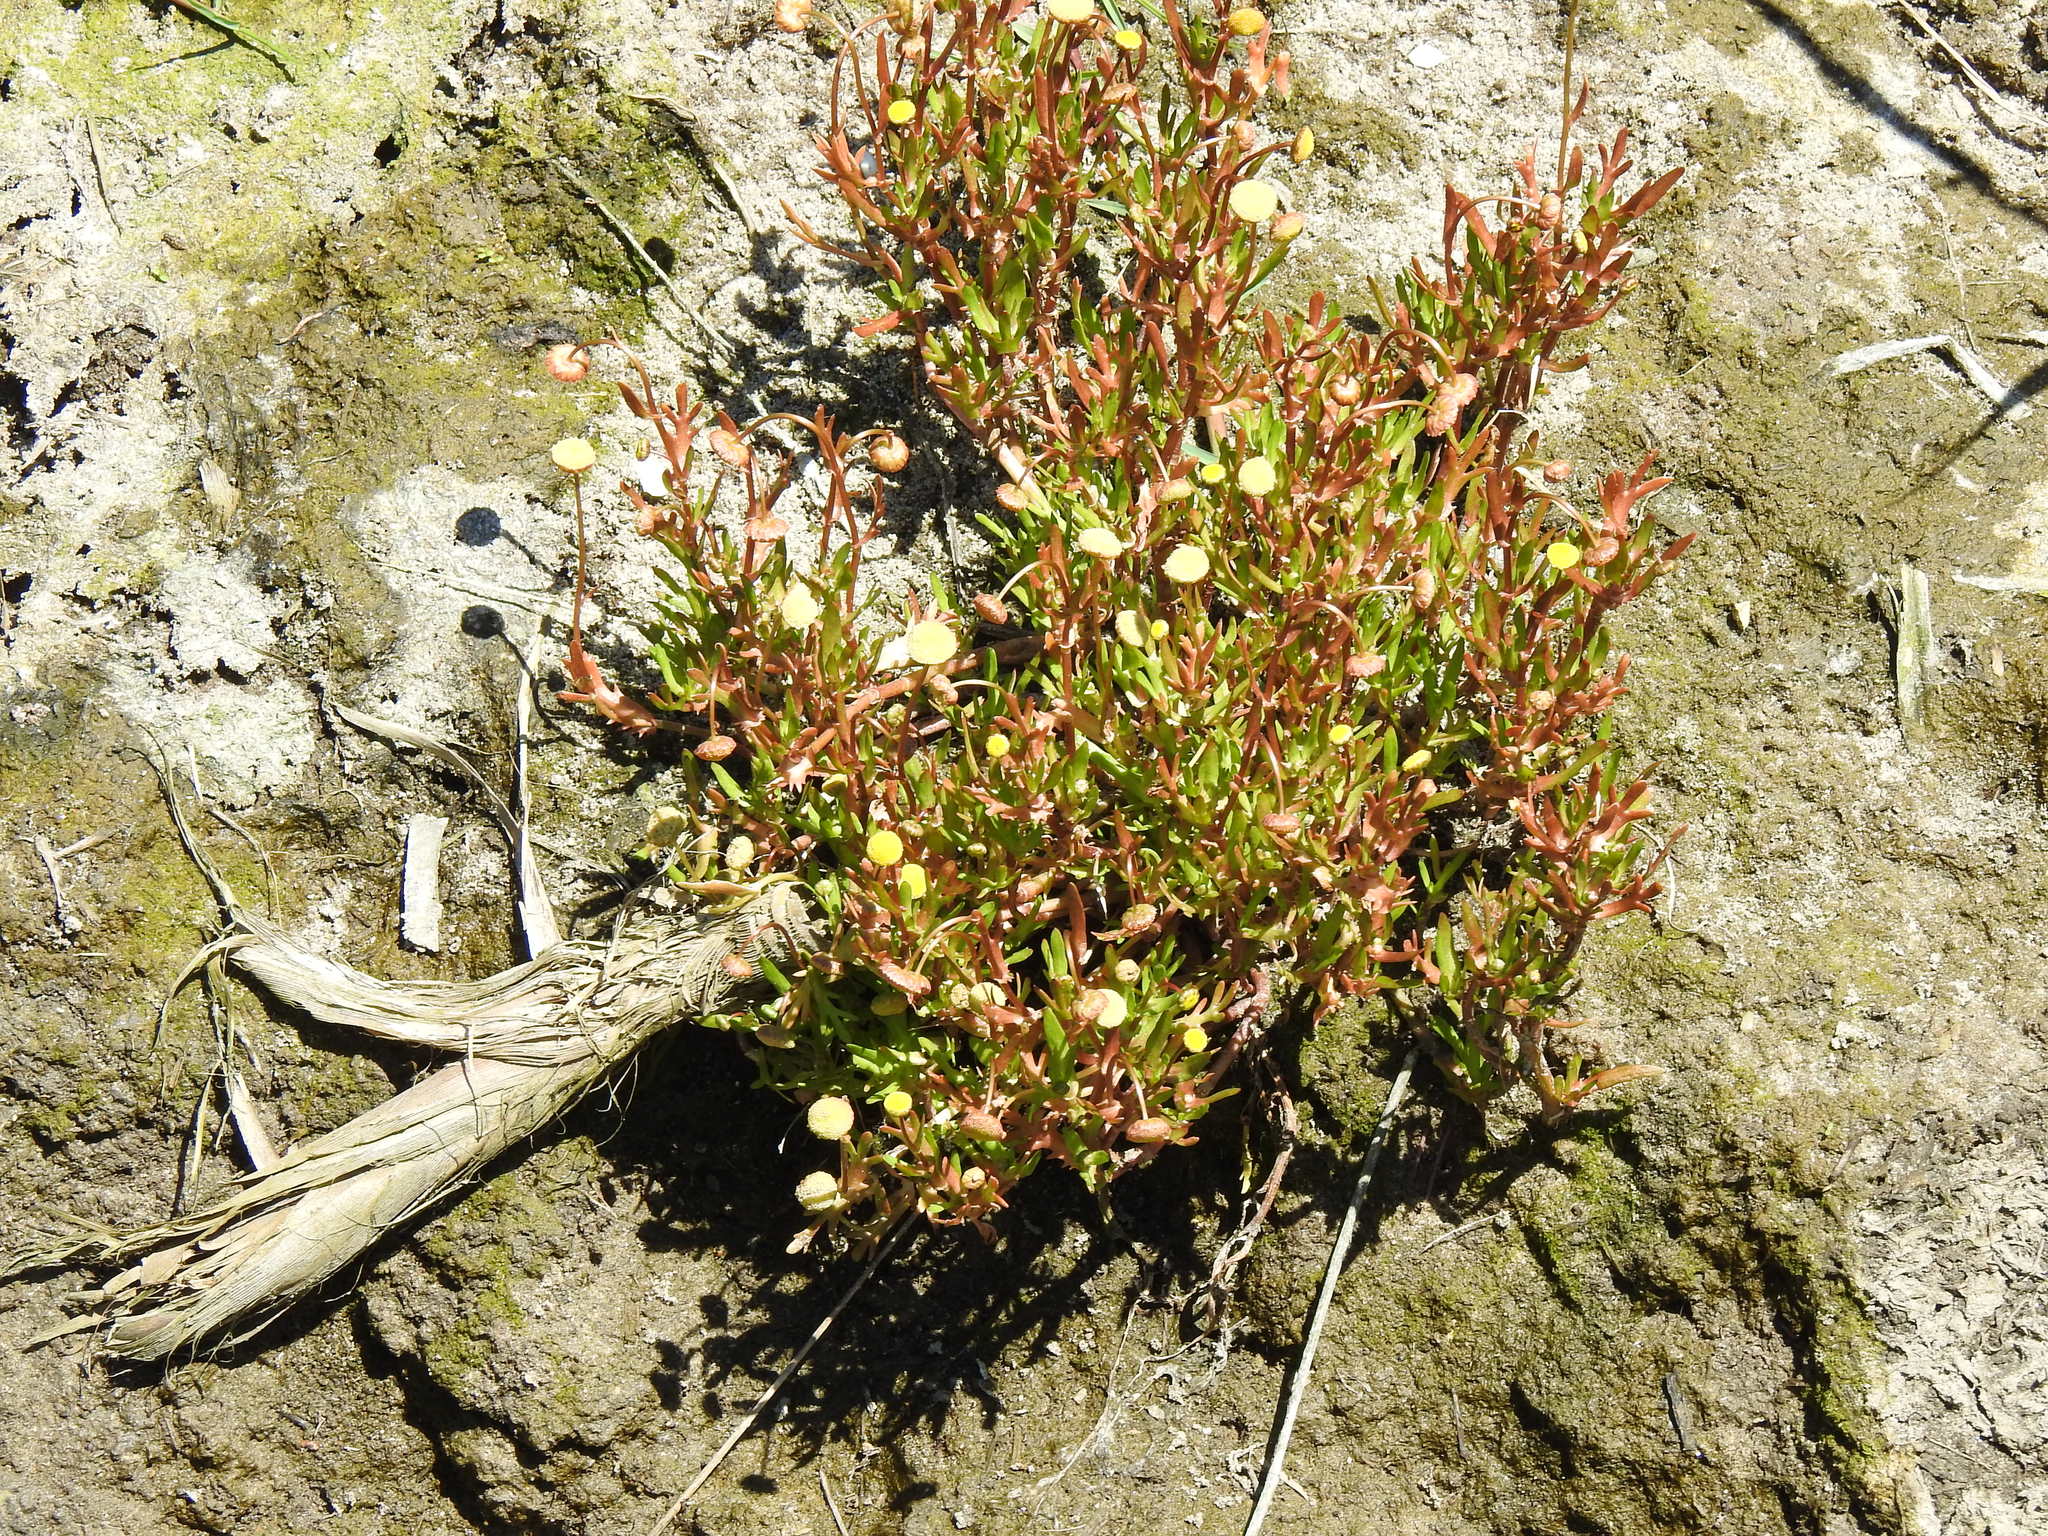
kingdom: Plantae
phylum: Tracheophyta
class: Magnoliopsida
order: Asterales
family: Asteraceae
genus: Cotula
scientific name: Cotula coronopifolia
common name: Buttonweed
